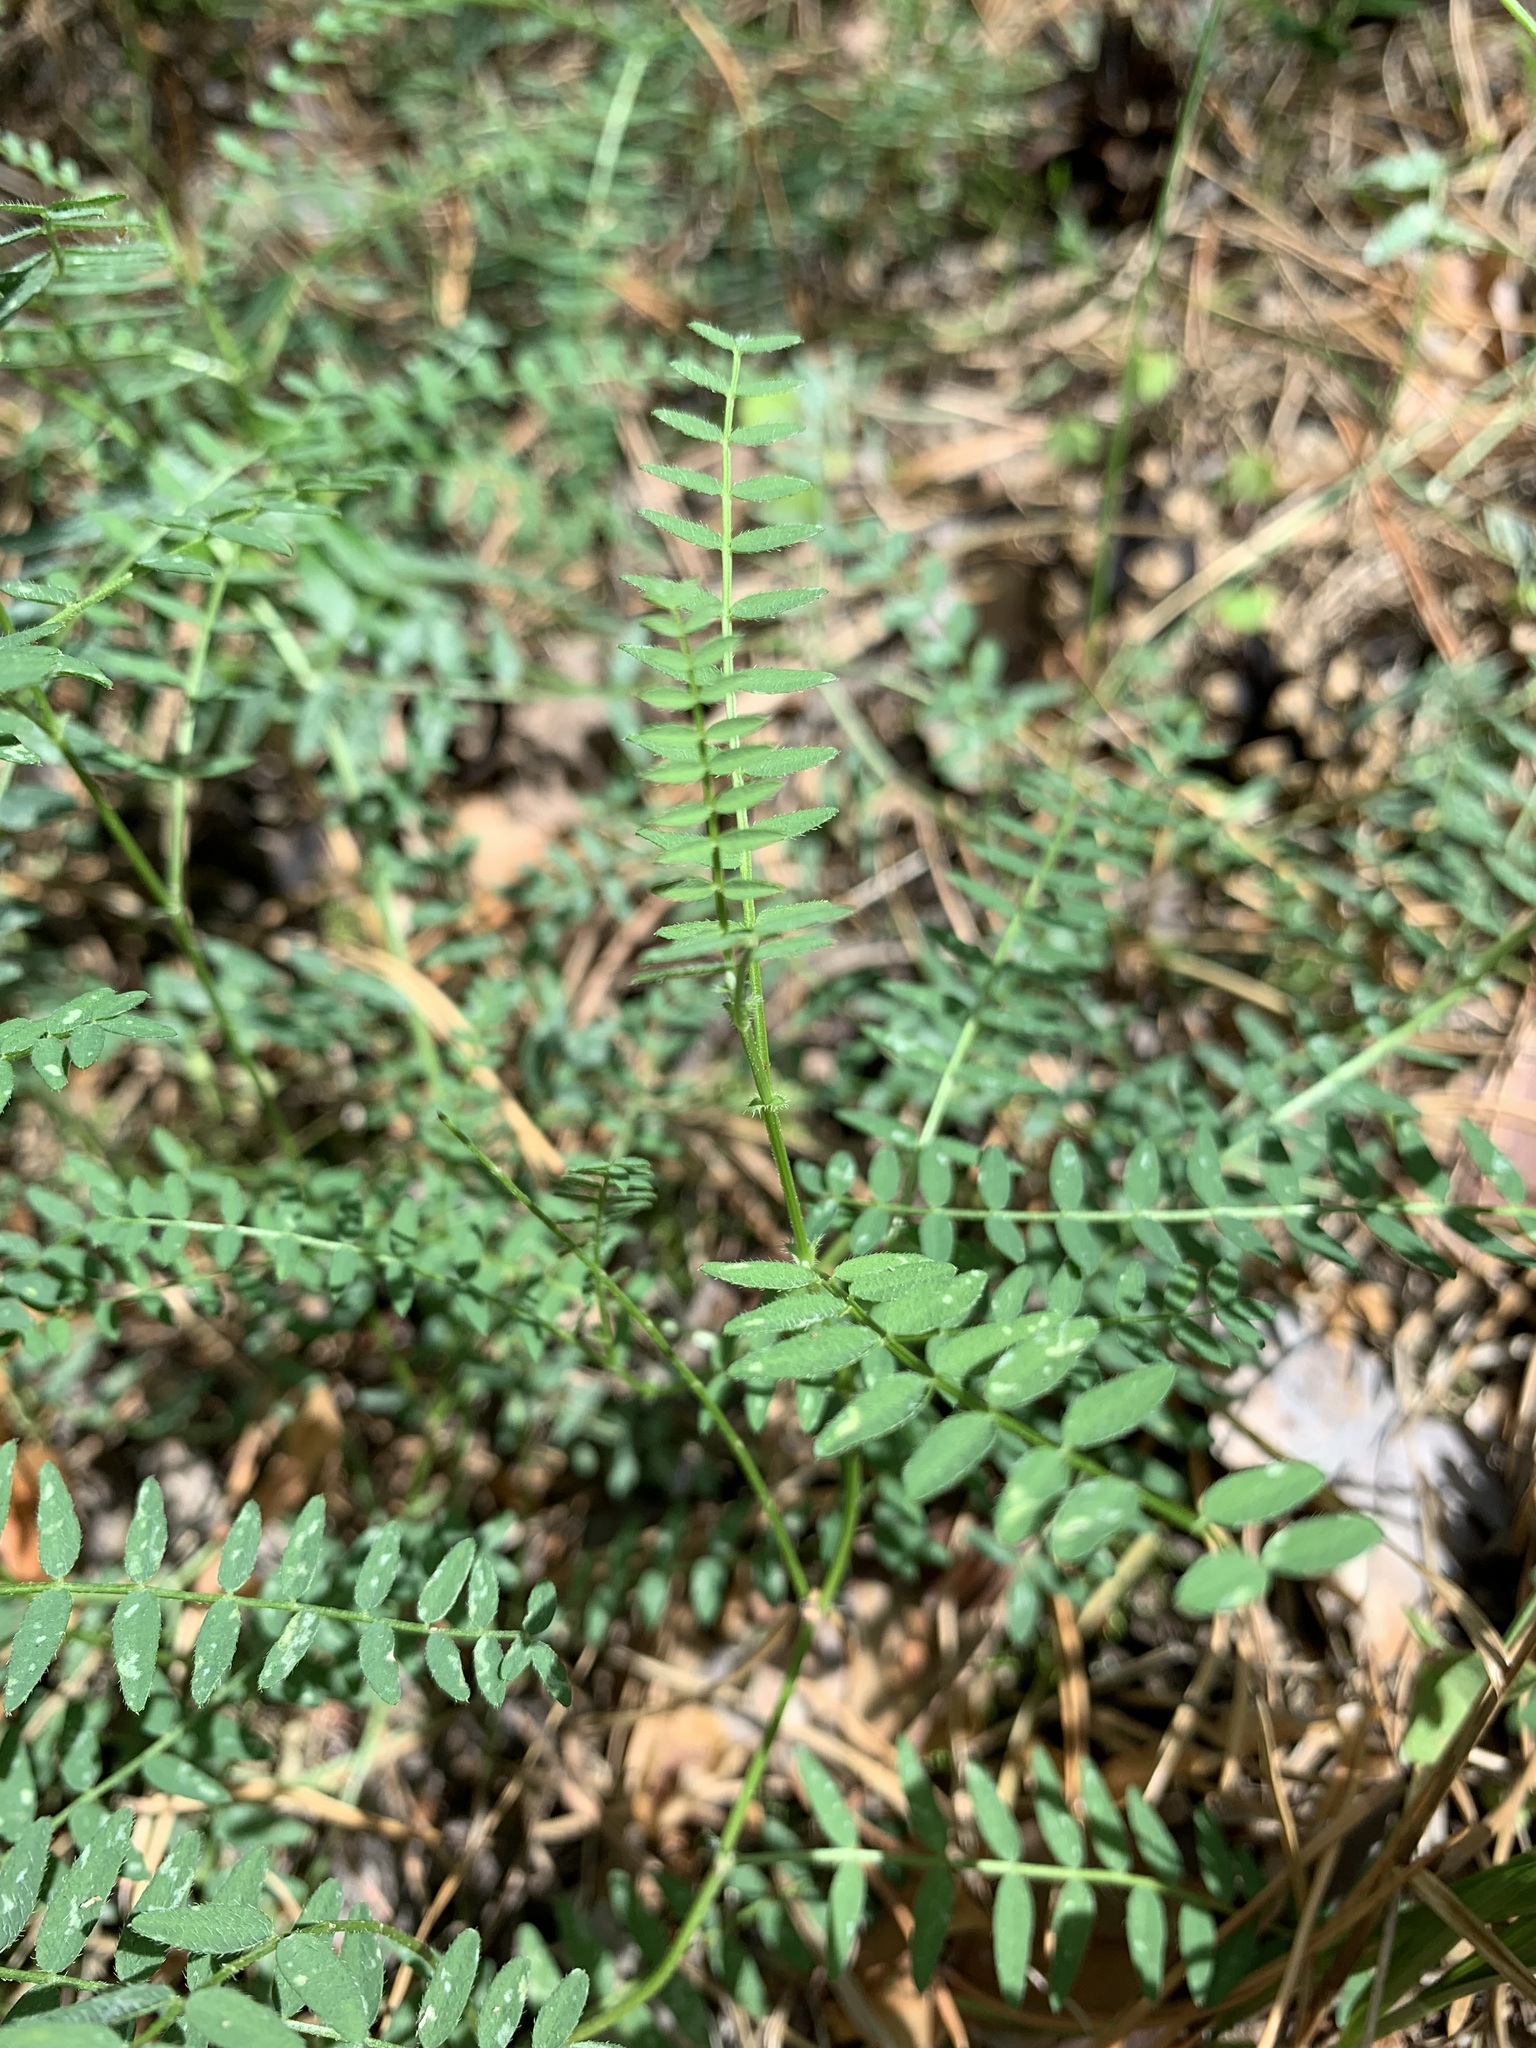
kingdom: Plantae
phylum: Tracheophyta
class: Magnoliopsida
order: Fabales
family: Fabaceae
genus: Astragalus
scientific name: Astragalus danicus
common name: Purple milk-vetch
